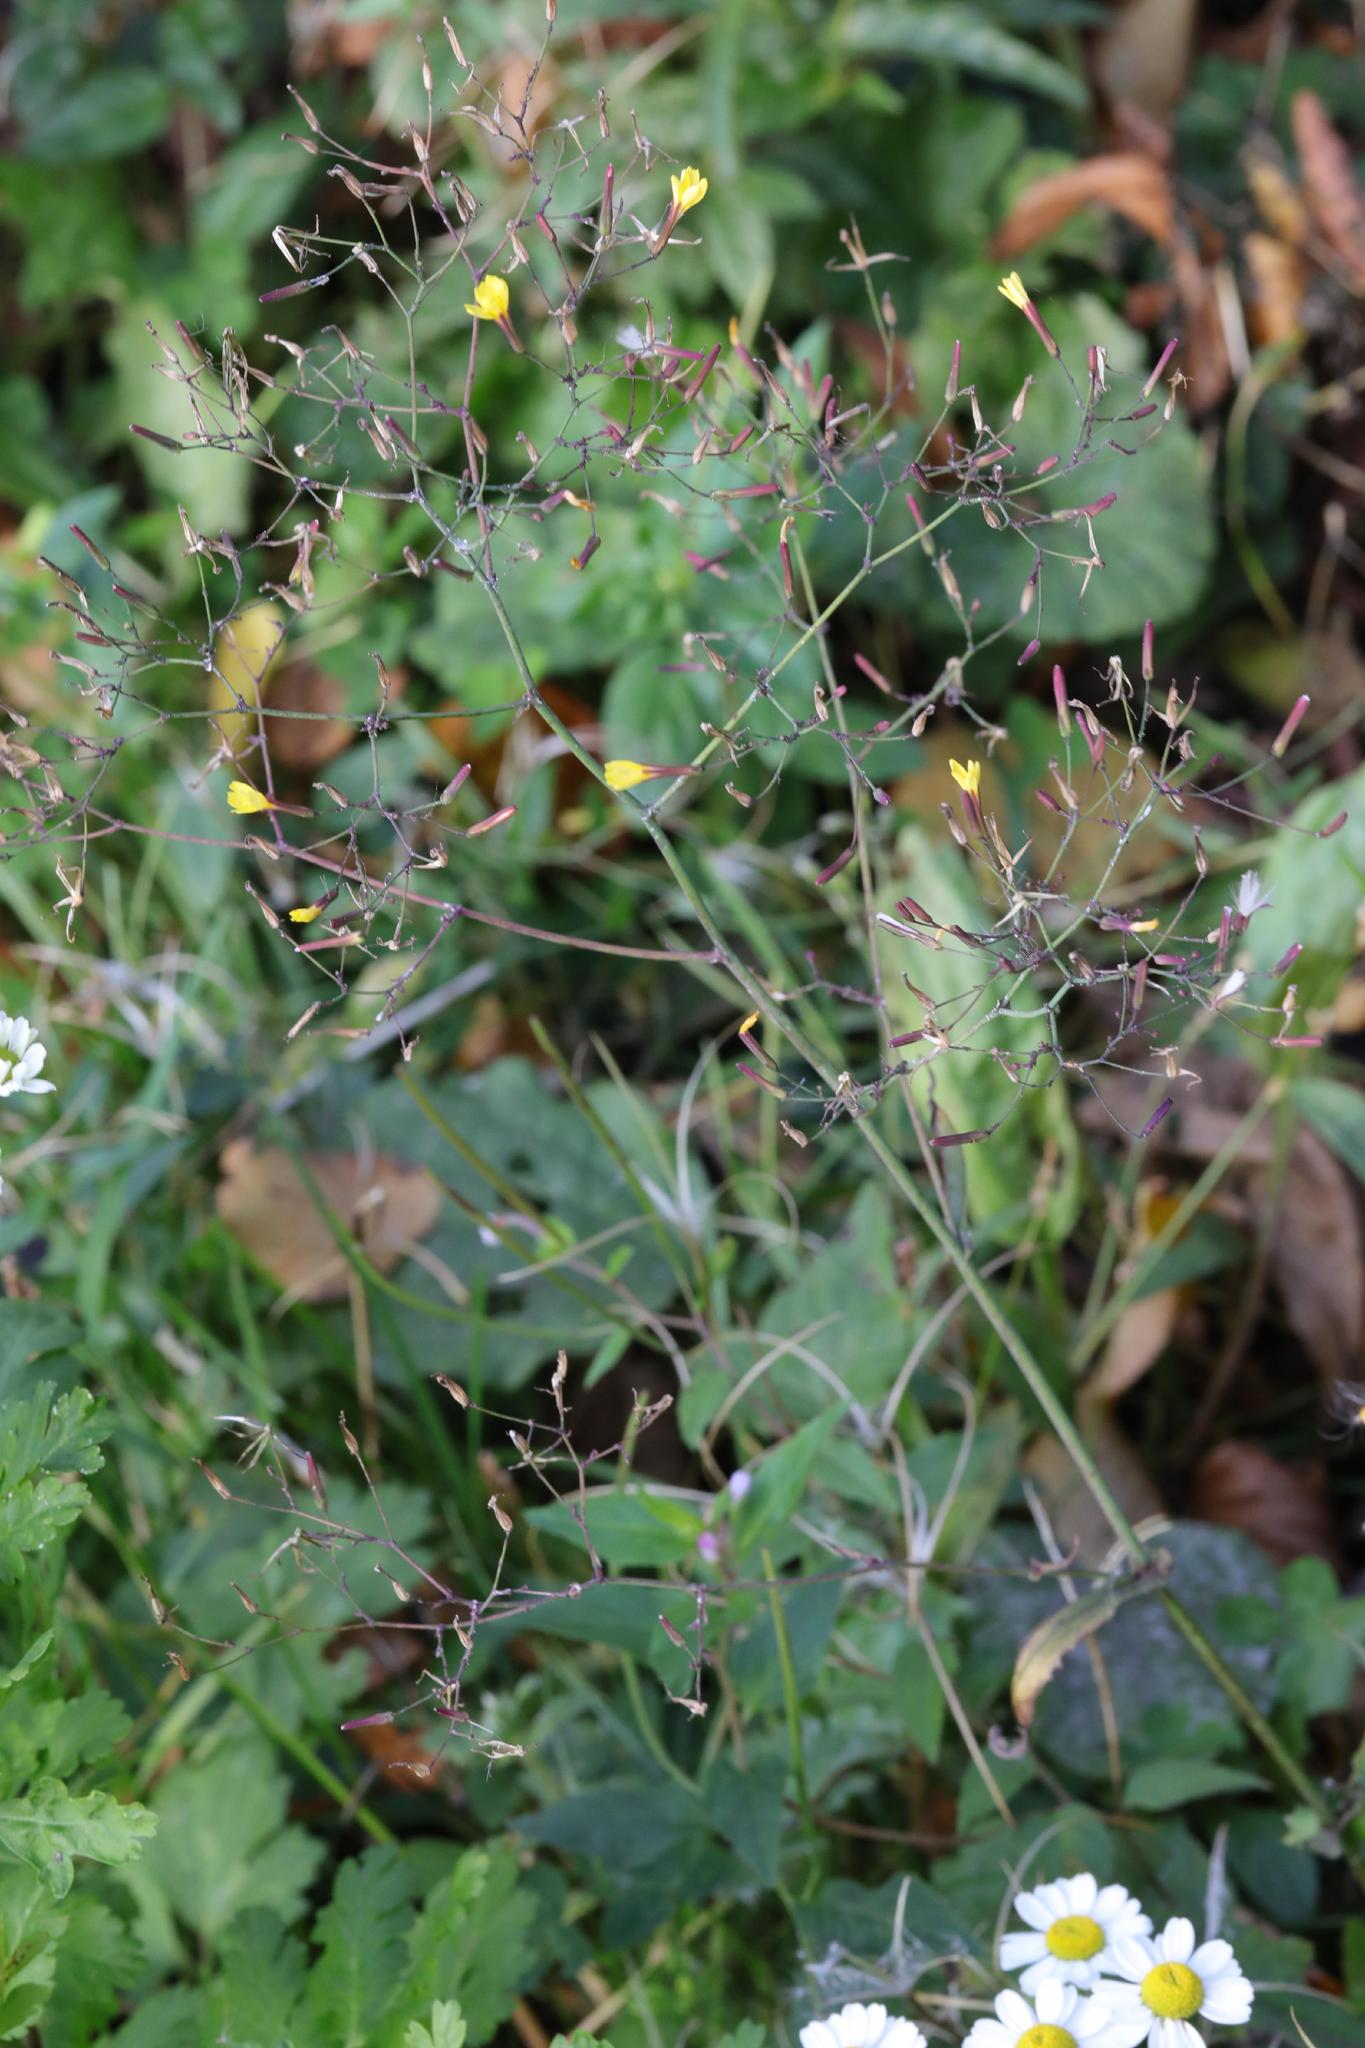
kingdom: Plantae
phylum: Tracheophyta
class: Magnoliopsida
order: Asterales
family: Asteraceae
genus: Mycelis
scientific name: Mycelis muralis
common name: Wall lettuce
